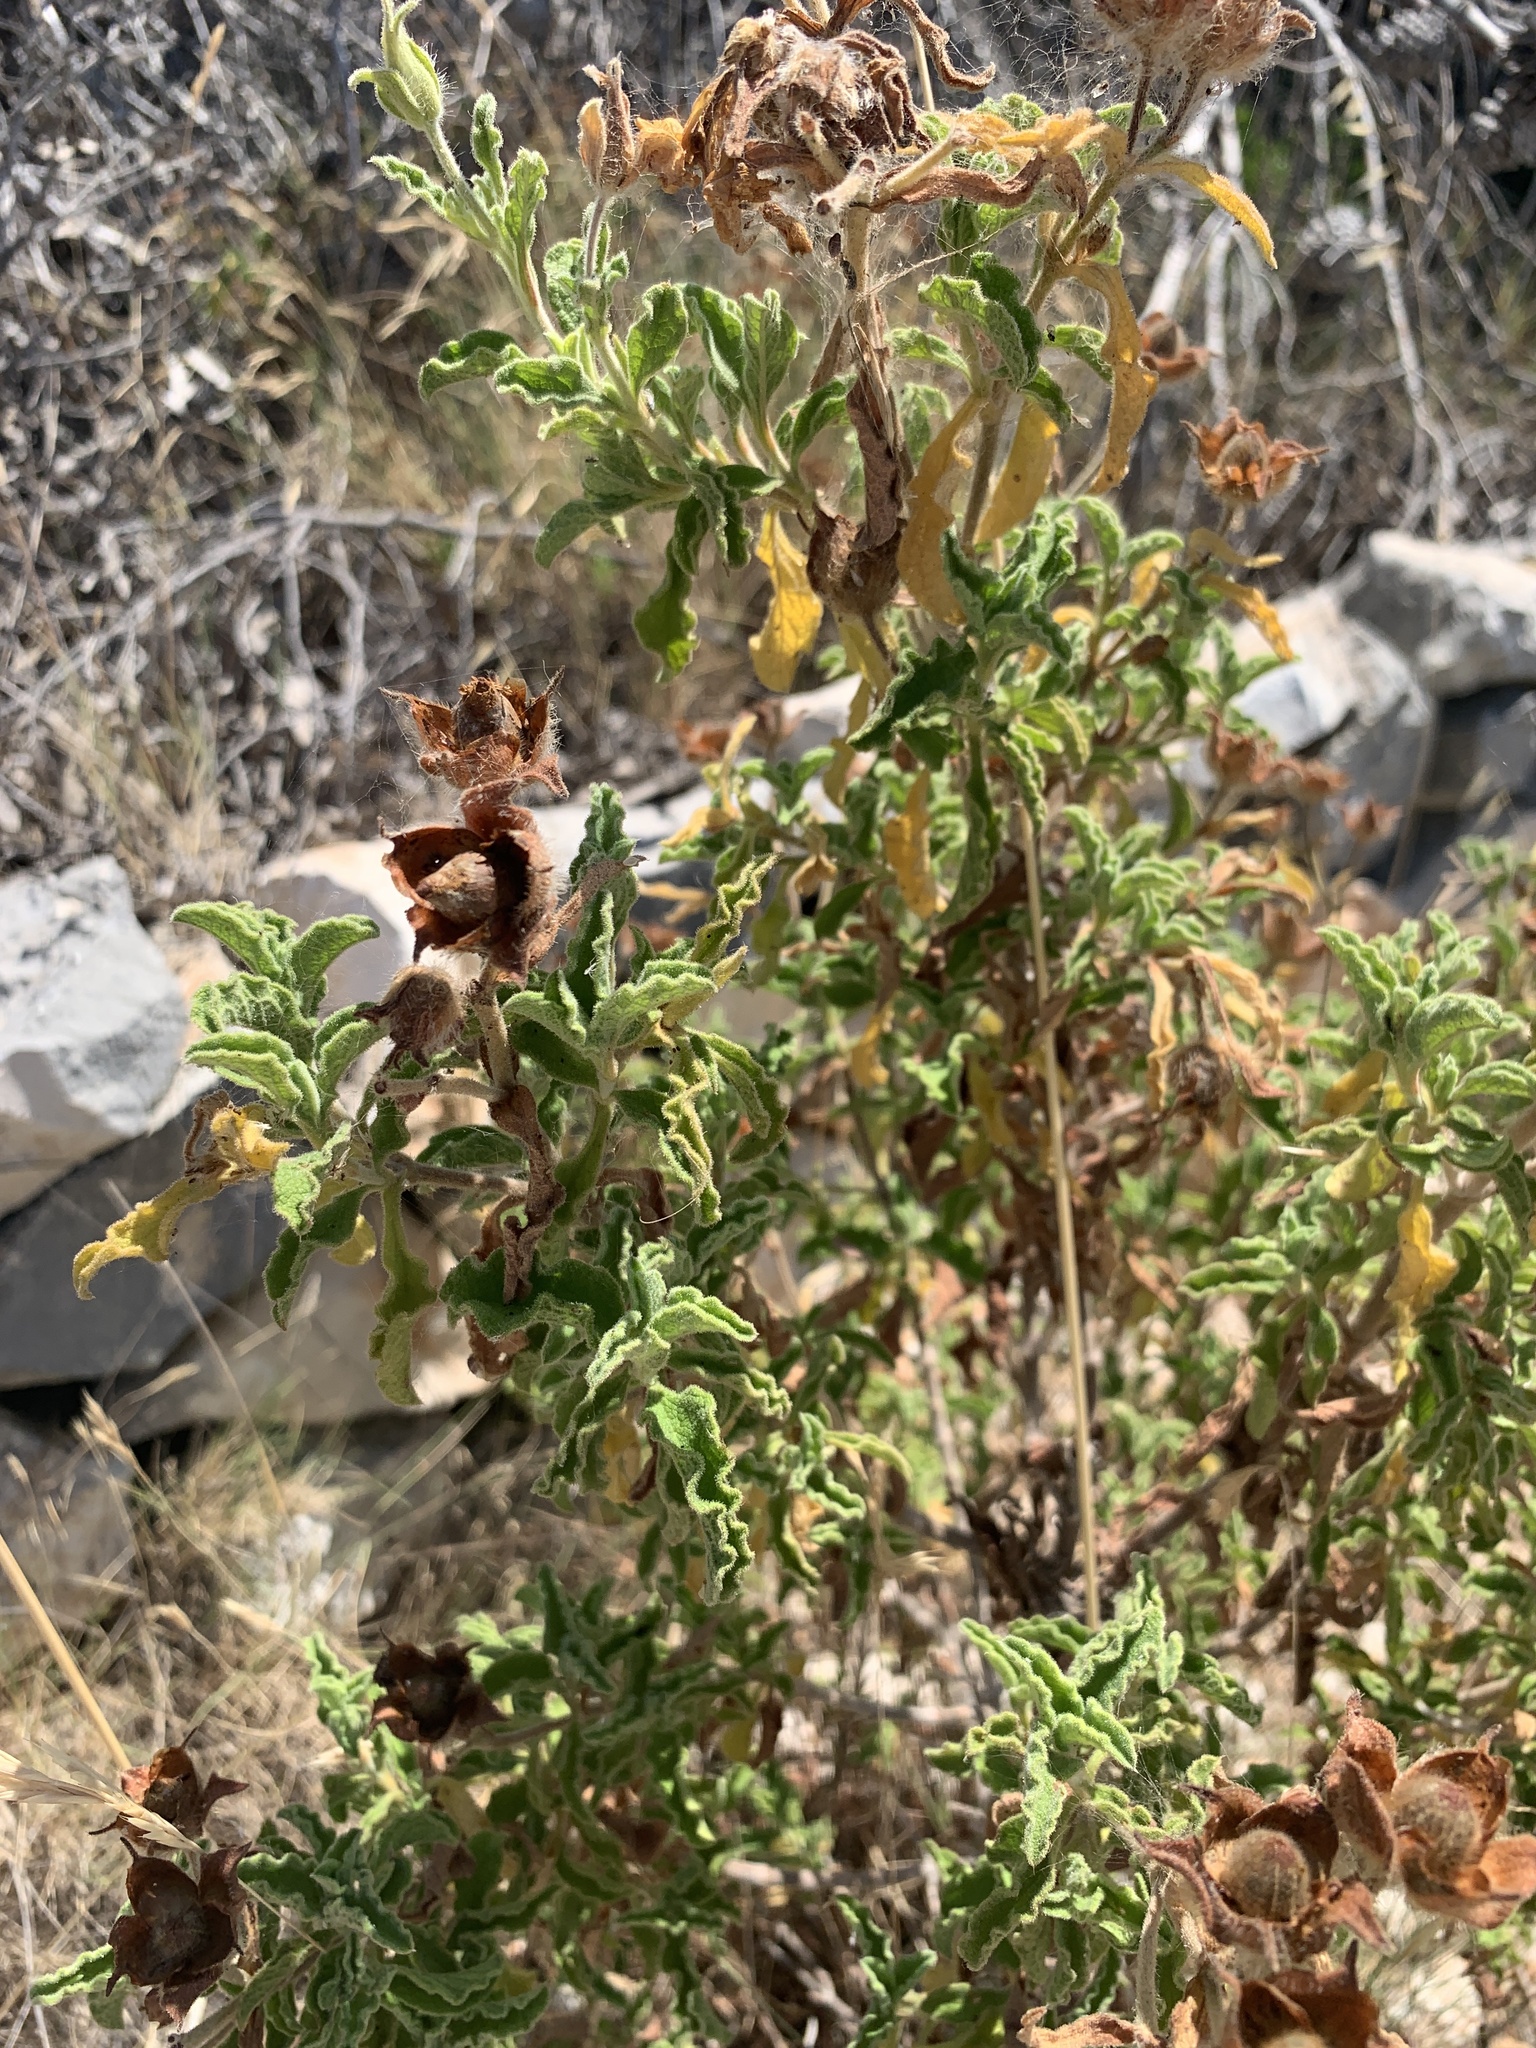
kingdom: Plantae
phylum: Tracheophyta
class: Magnoliopsida
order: Malvales
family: Cistaceae
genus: Cistus
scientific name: Cistus creticus
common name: Cretan rockrose
